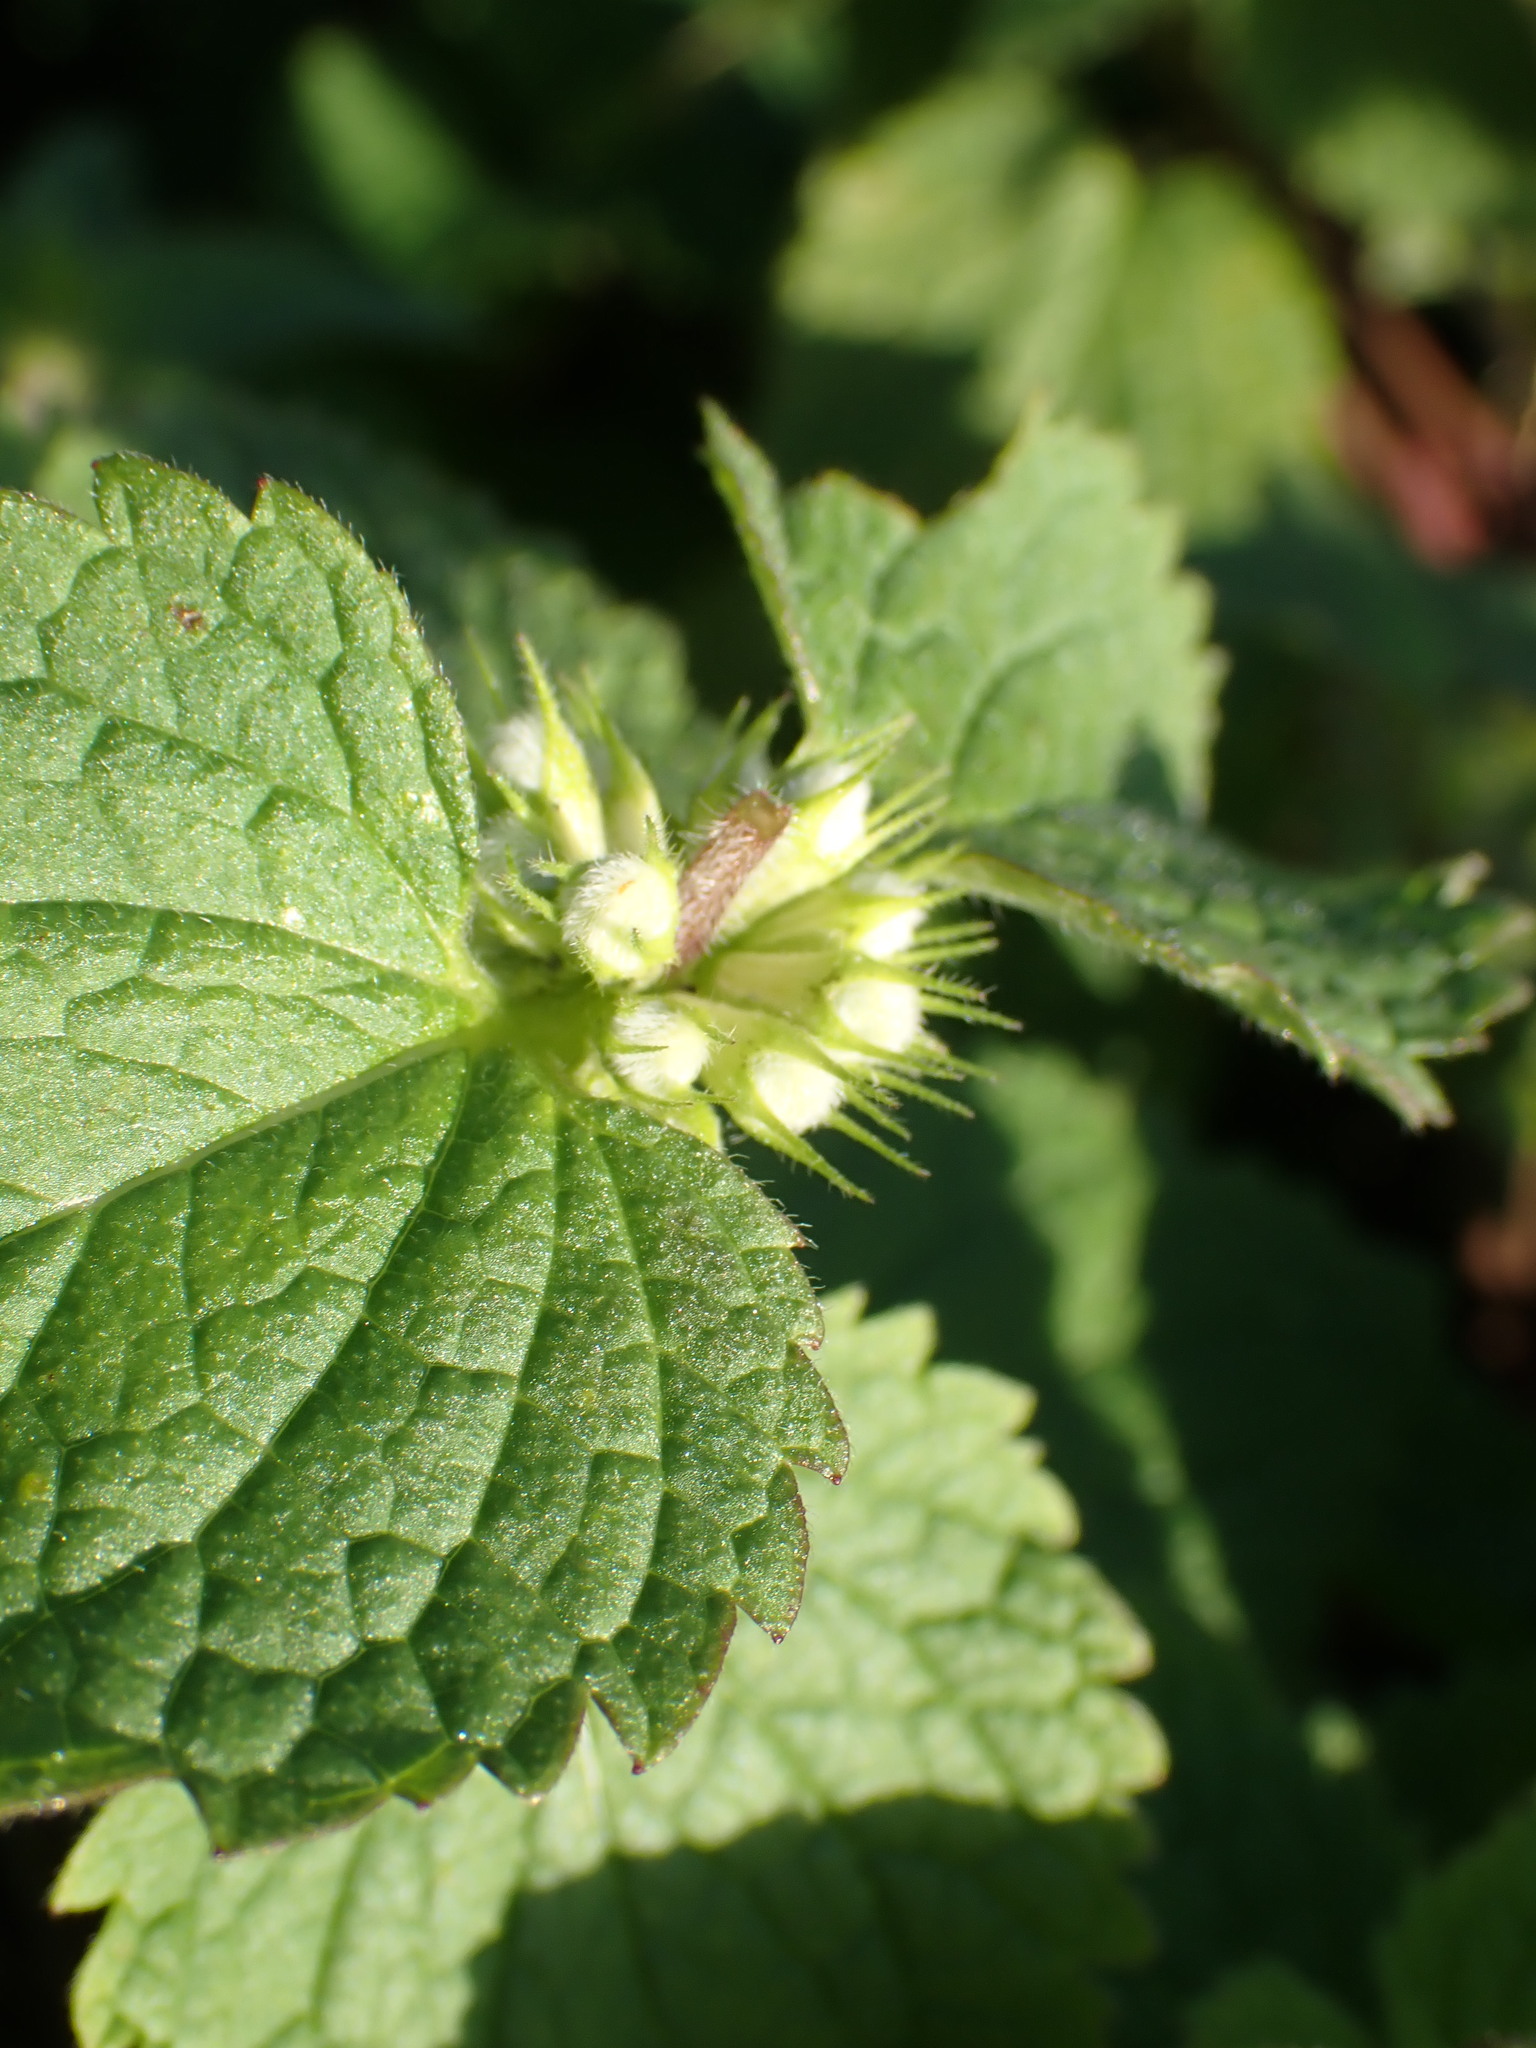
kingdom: Plantae
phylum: Tracheophyta
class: Magnoliopsida
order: Lamiales
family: Lamiaceae
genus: Lamium
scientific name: Lamium album
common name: White dead-nettle
